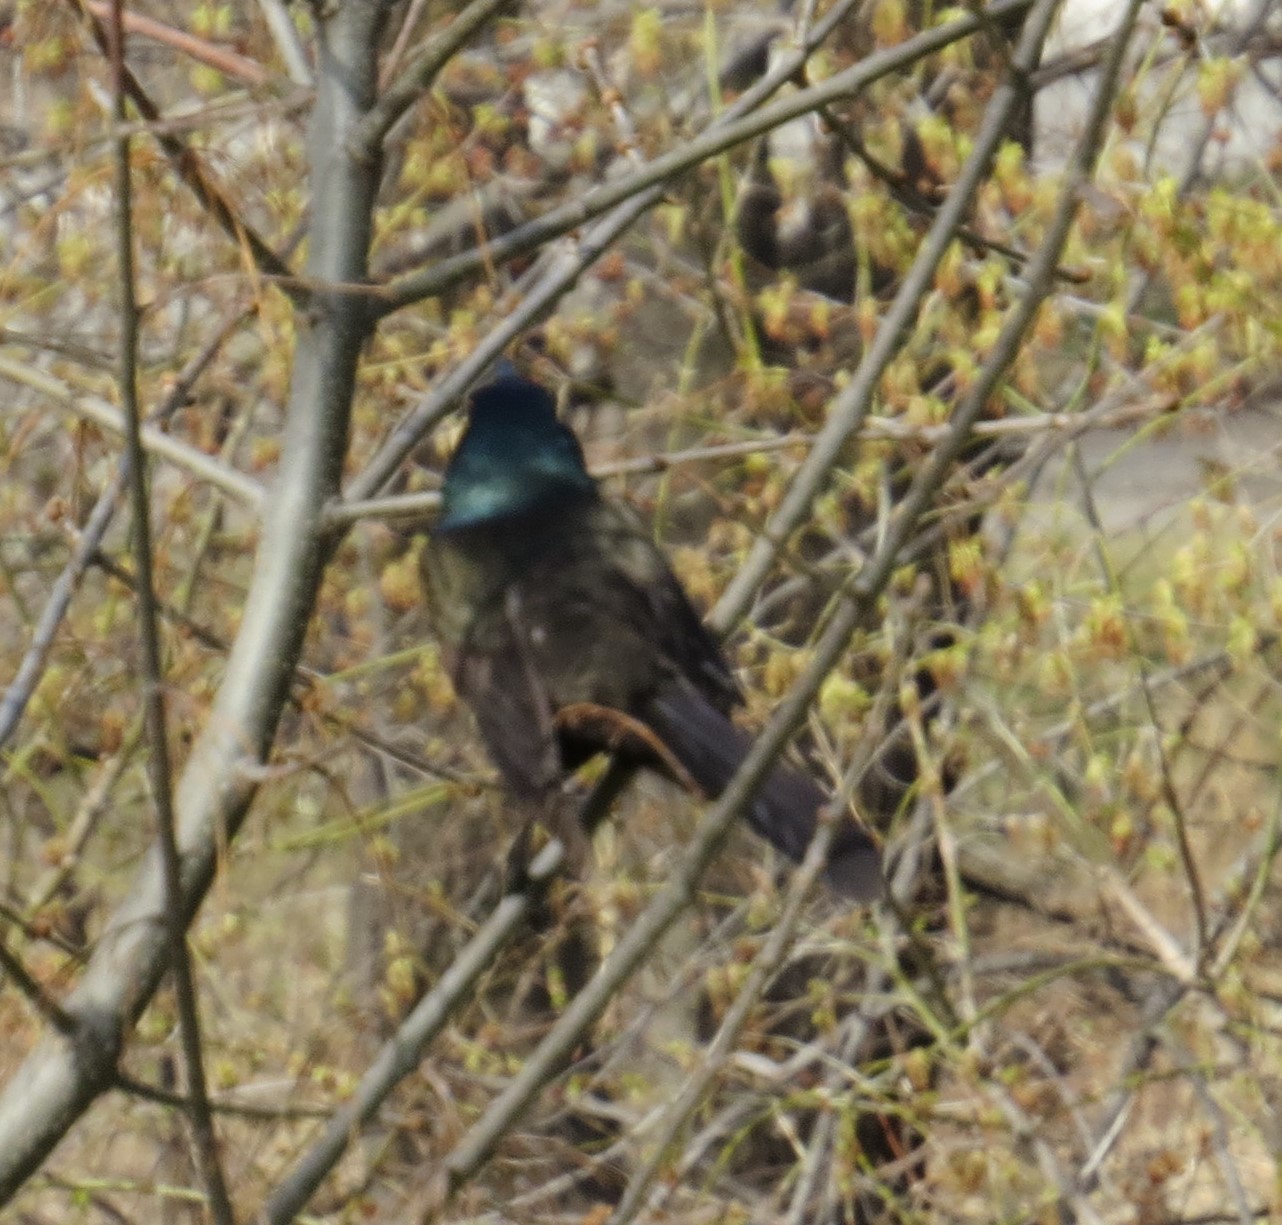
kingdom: Animalia
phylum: Chordata
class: Aves
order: Passeriformes
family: Icteridae
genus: Quiscalus
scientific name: Quiscalus quiscula
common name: Common grackle
